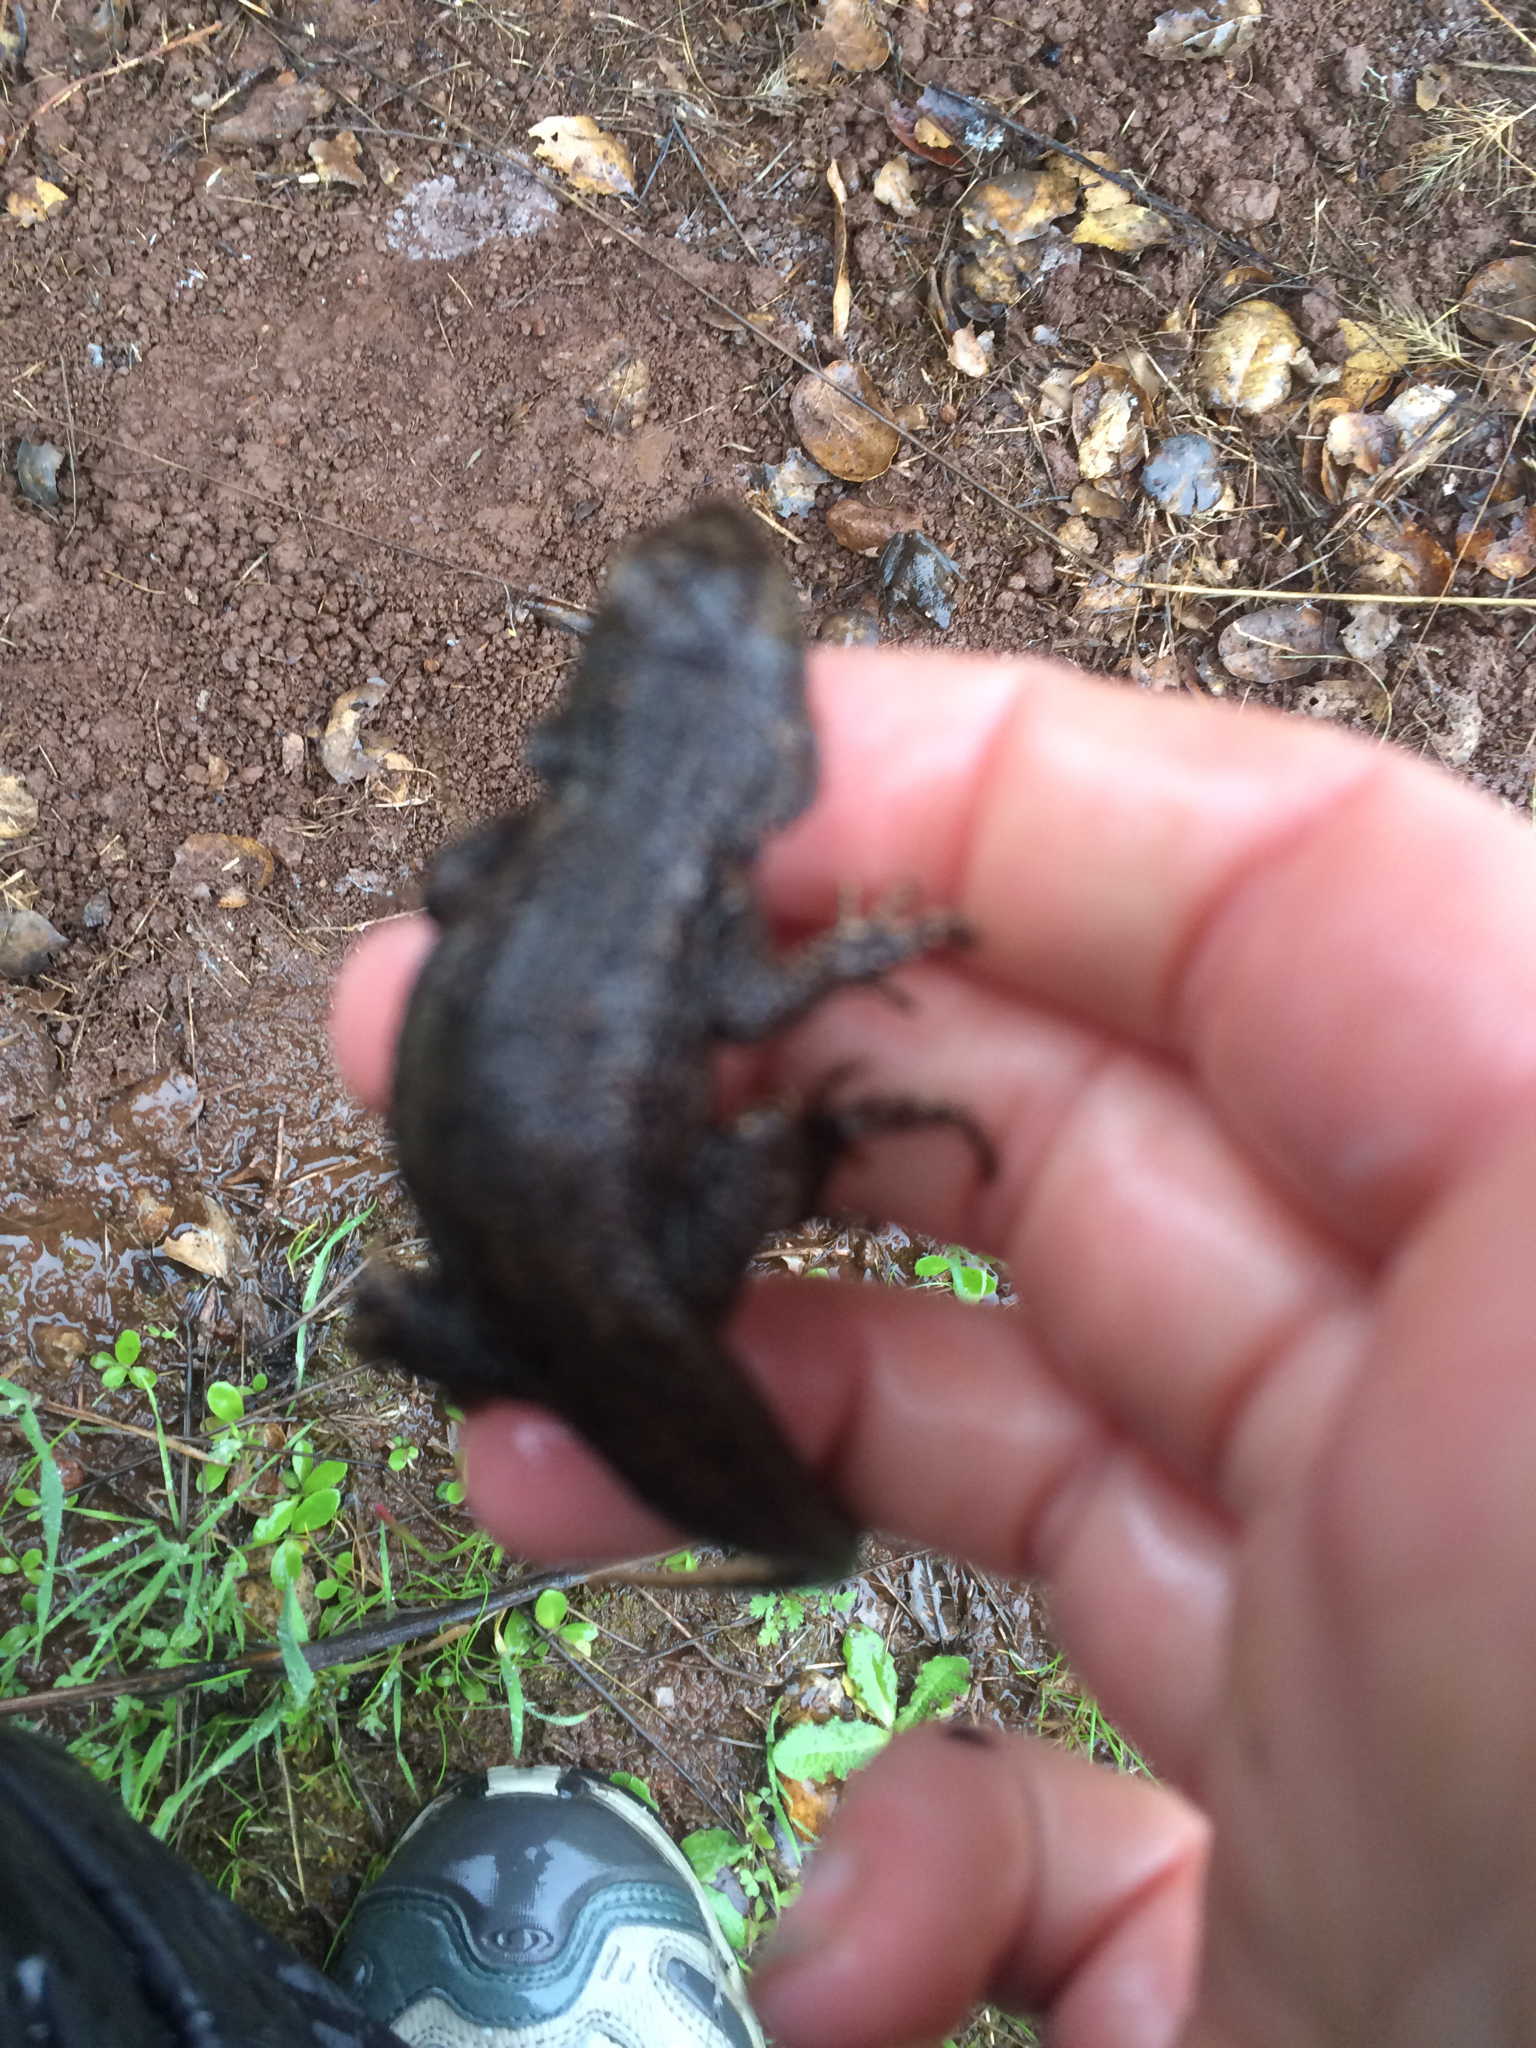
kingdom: Animalia
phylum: Chordata
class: Squamata
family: Phrynosomatidae
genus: Sceloporus
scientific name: Sceloporus occidentalis
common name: Western fence lizard
